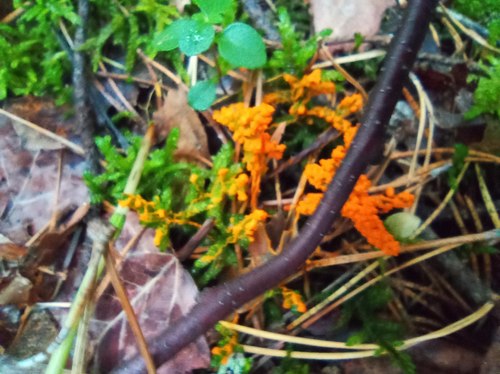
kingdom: Protozoa
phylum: Mycetozoa
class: Myxomycetes
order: Physarales
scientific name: Physarales
